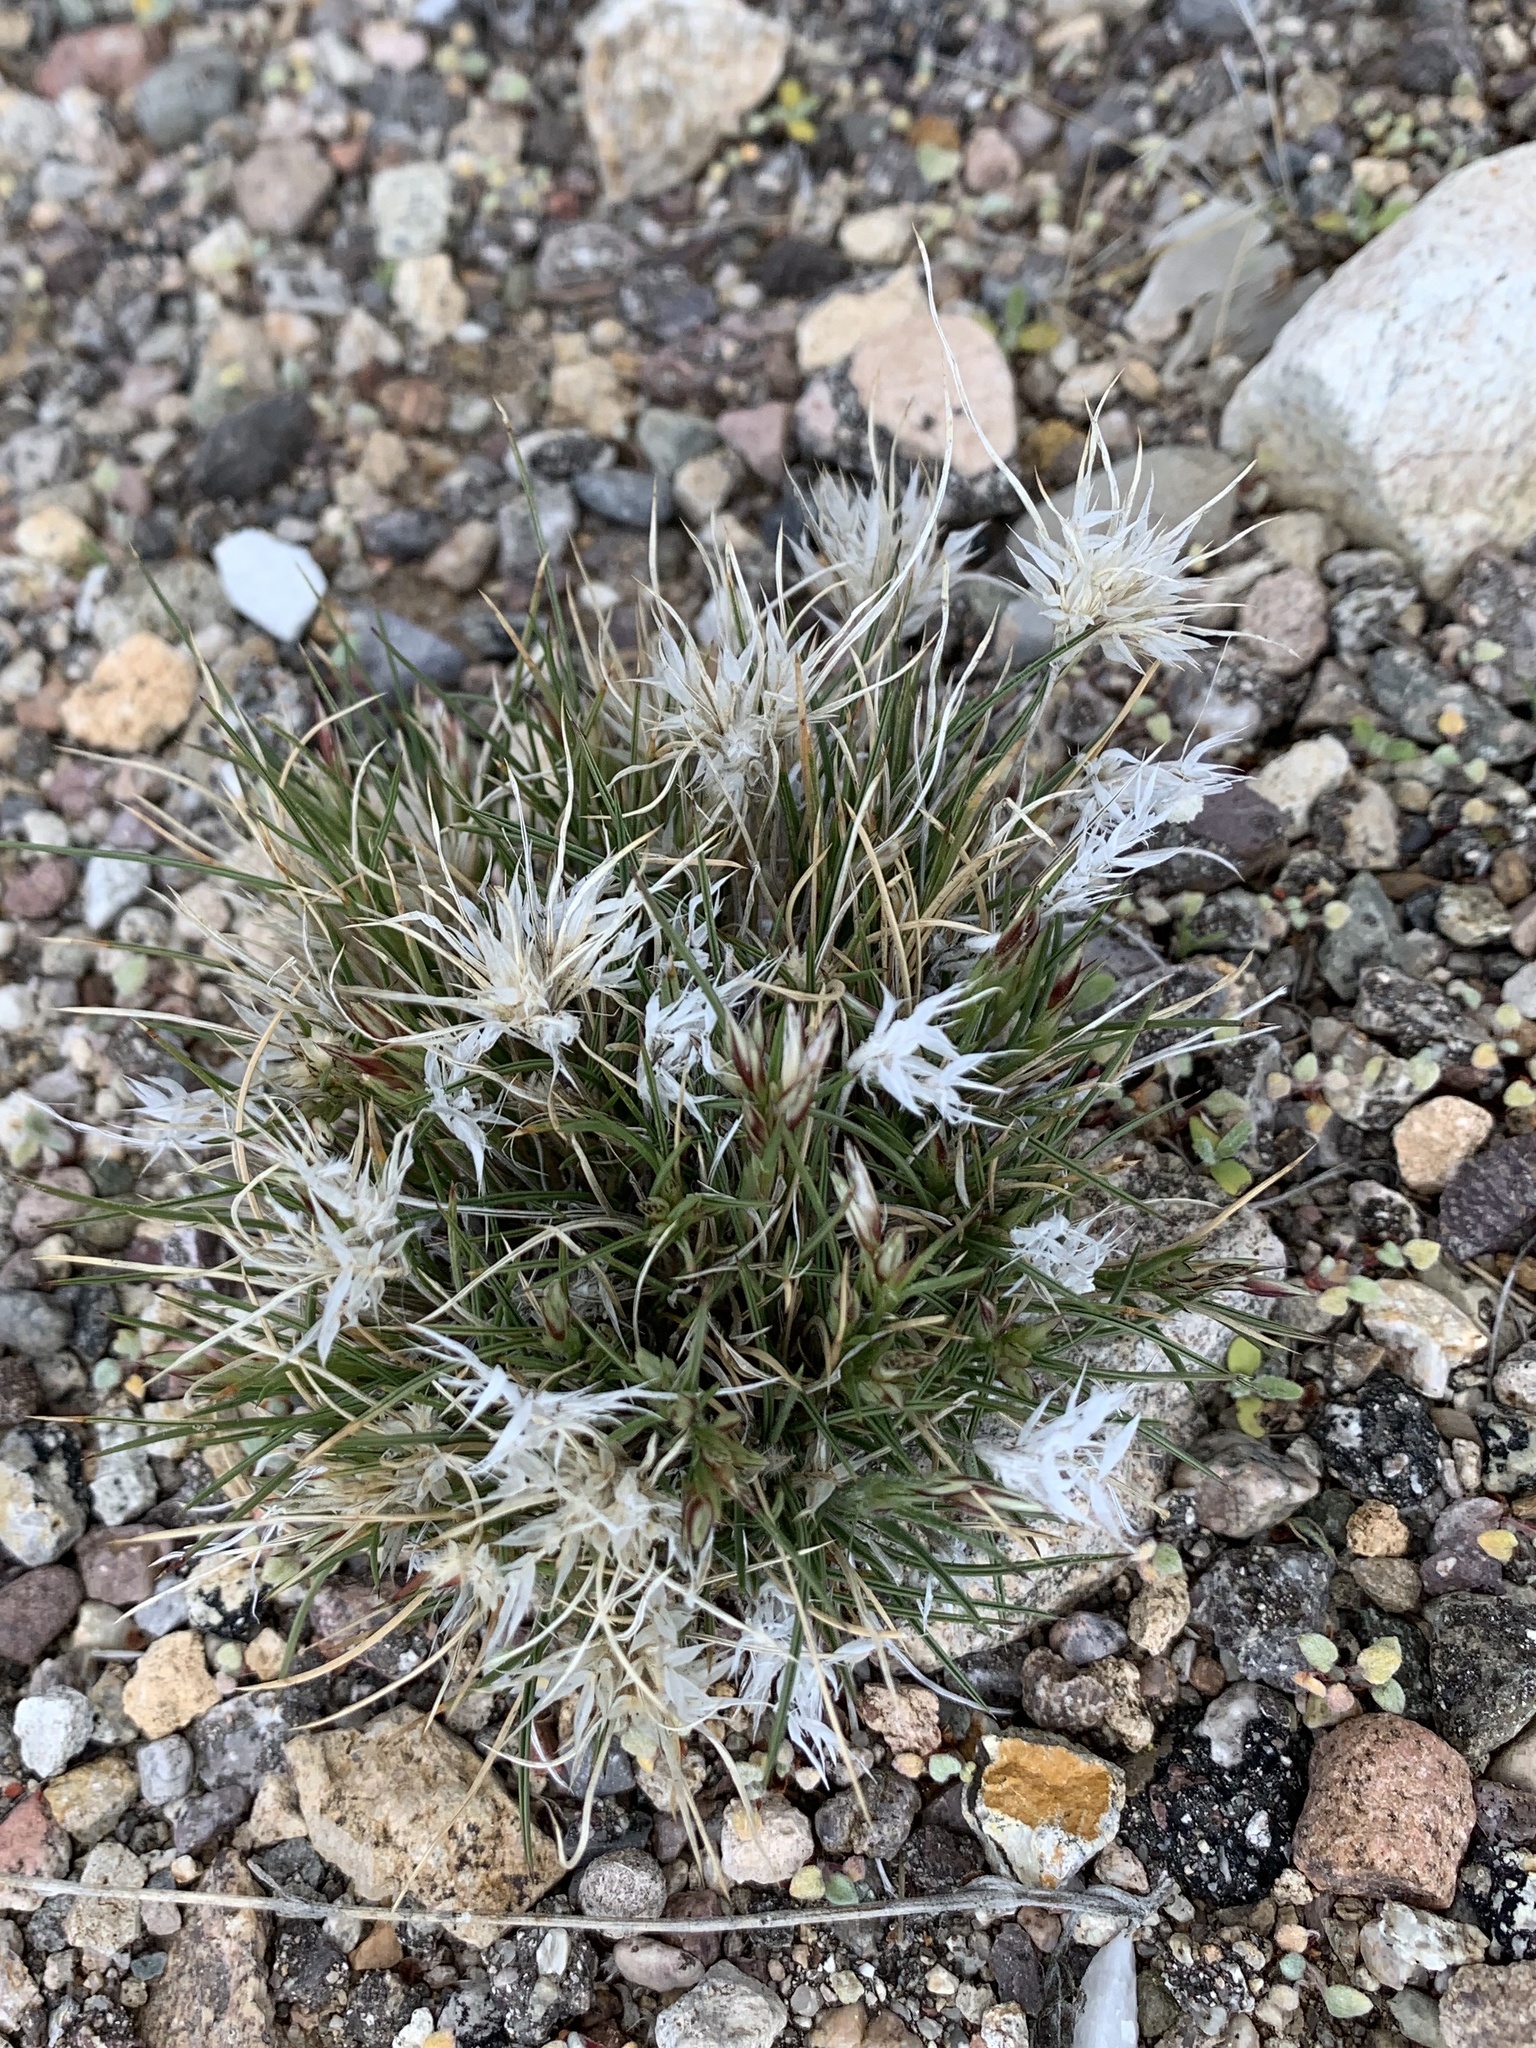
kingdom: Plantae
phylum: Tracheophyta
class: Liliopsida
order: Poales
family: Poaceae
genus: Dasyochloa
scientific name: Dasyochloa pulchella
